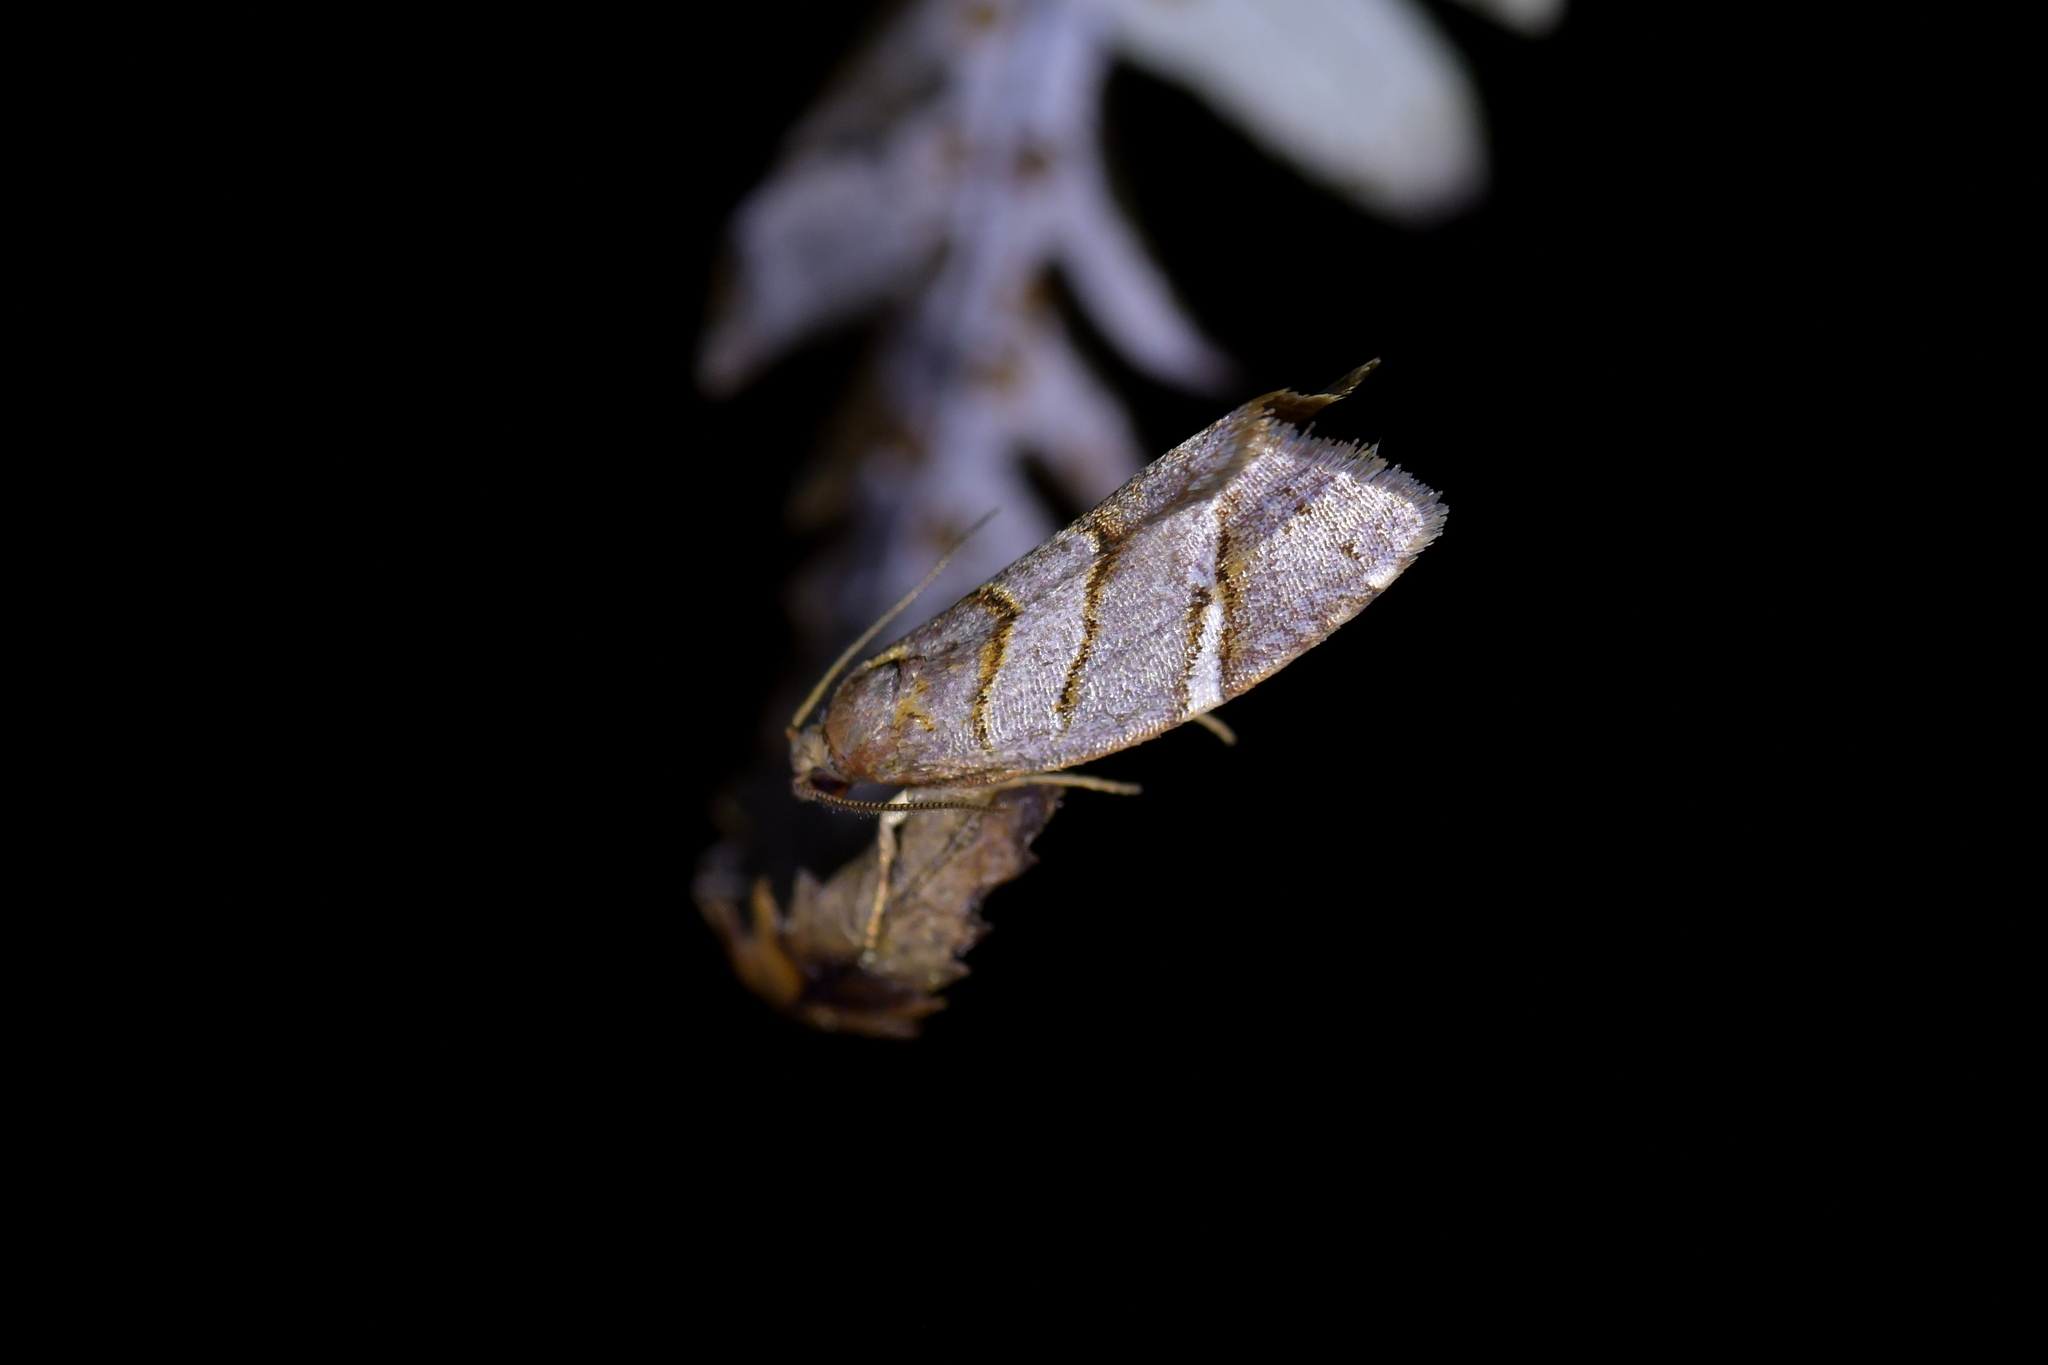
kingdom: Animalia
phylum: Arthropoda
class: Insecta
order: Lepidoptera
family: Tortricidae
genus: Ecclitica
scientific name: Ecclitica torogramma
